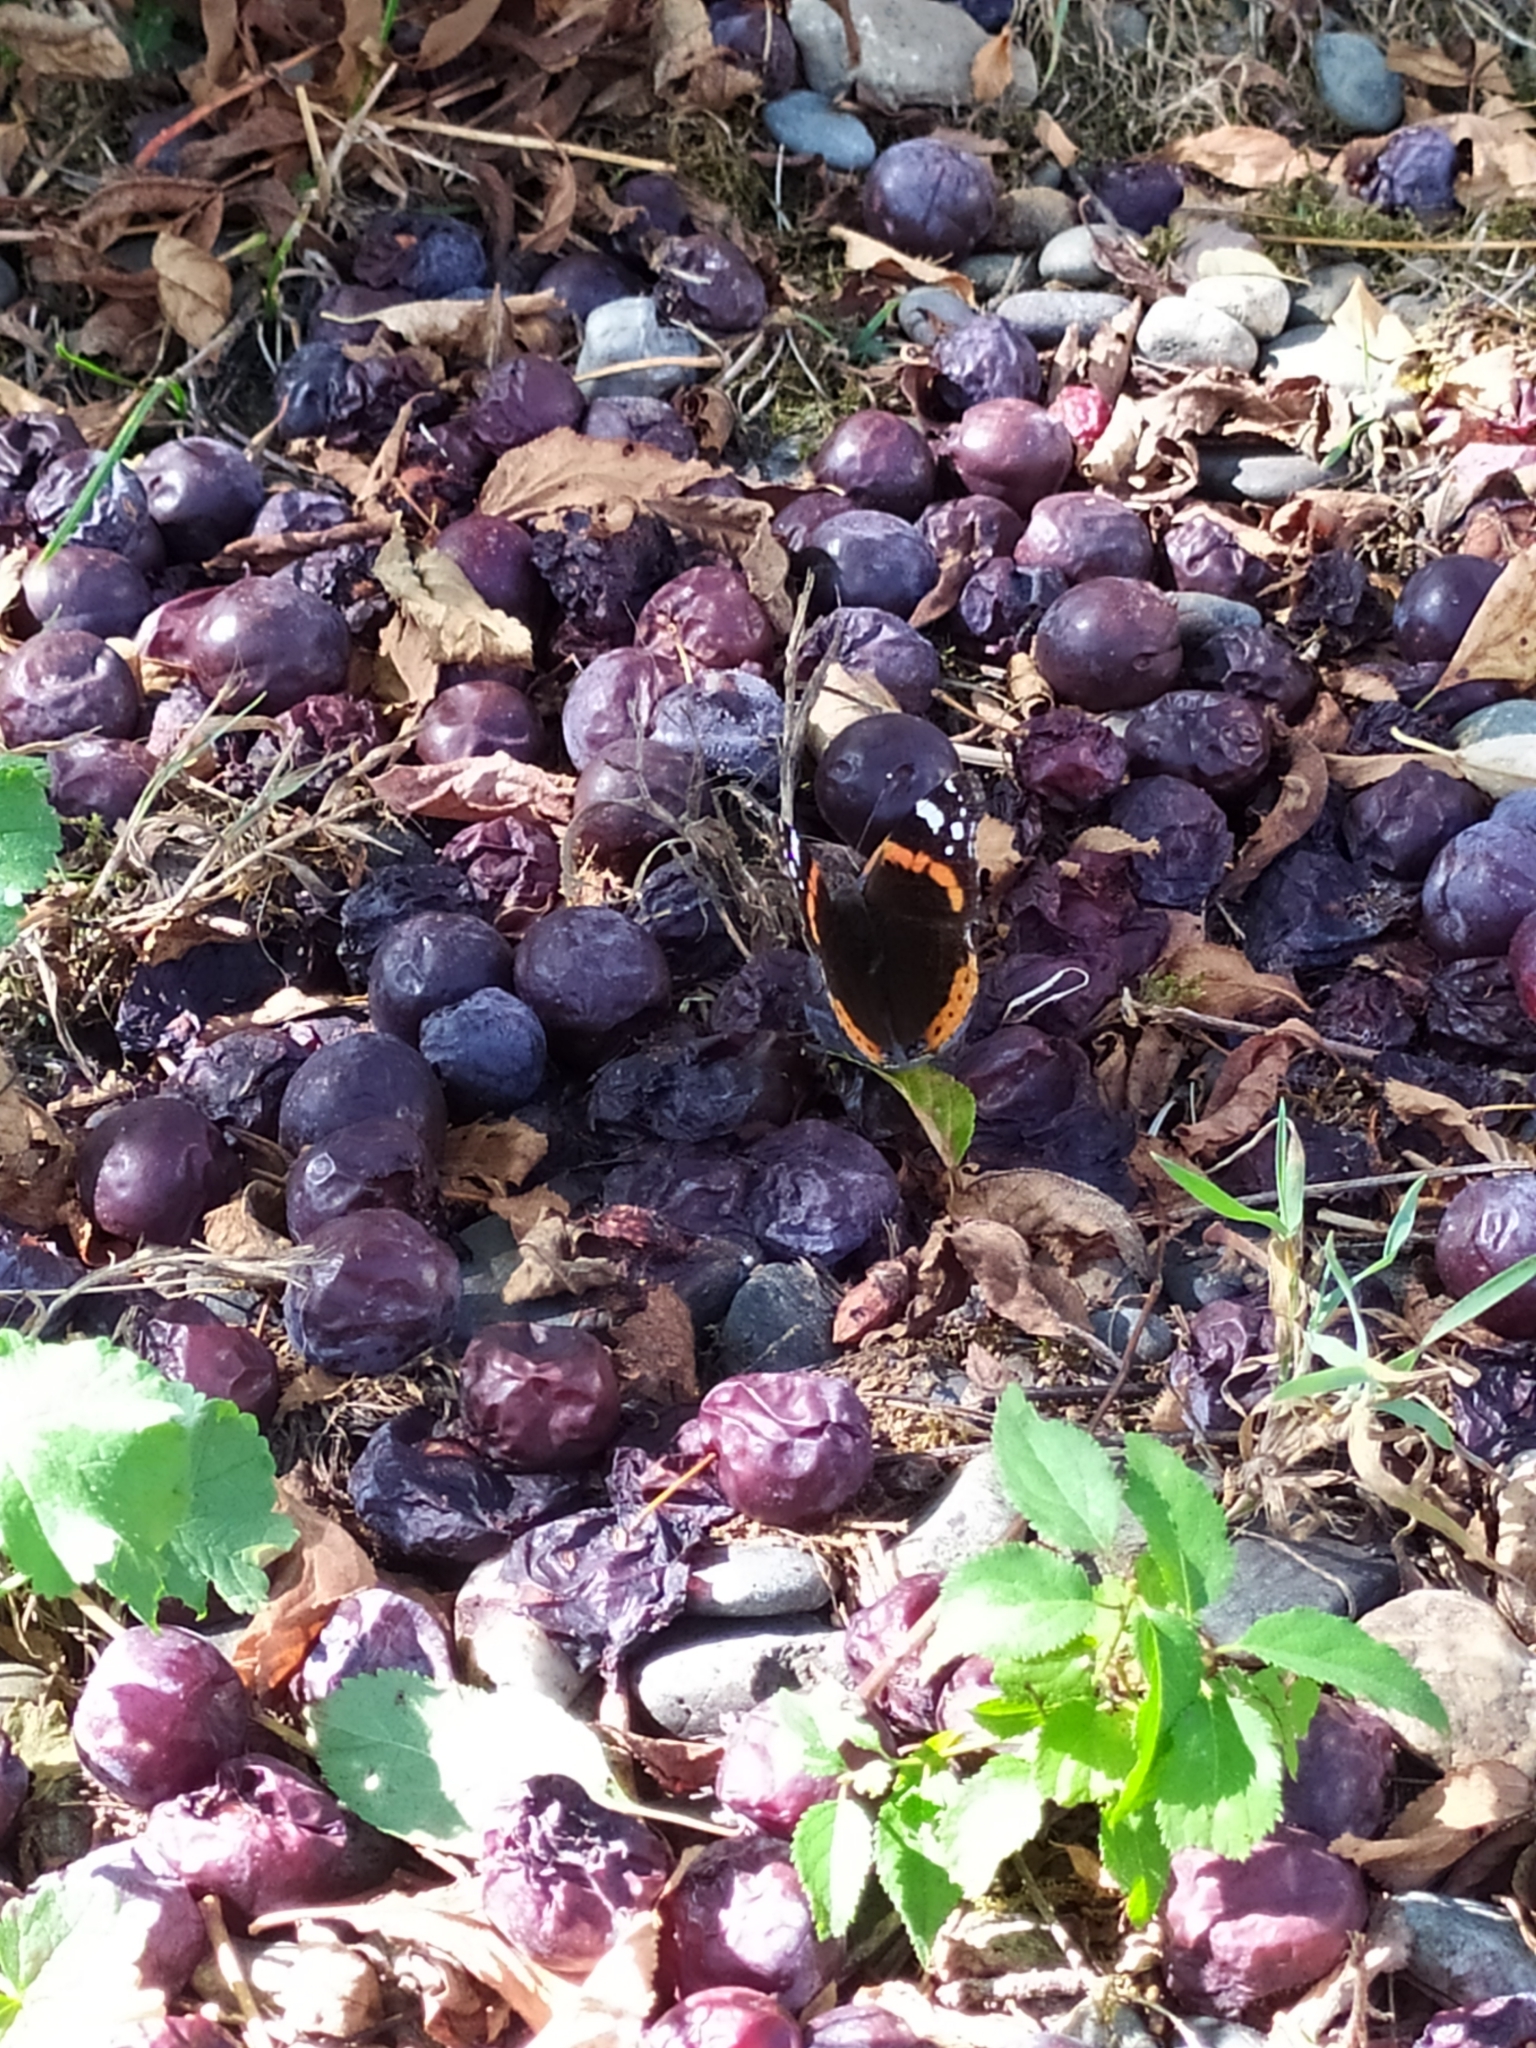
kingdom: Animalia
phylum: Arthropoda
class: Insecta
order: Lepidoptera
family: Nymphalidae
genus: Vanessa
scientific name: Vanessa atalanta
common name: Red admiral
